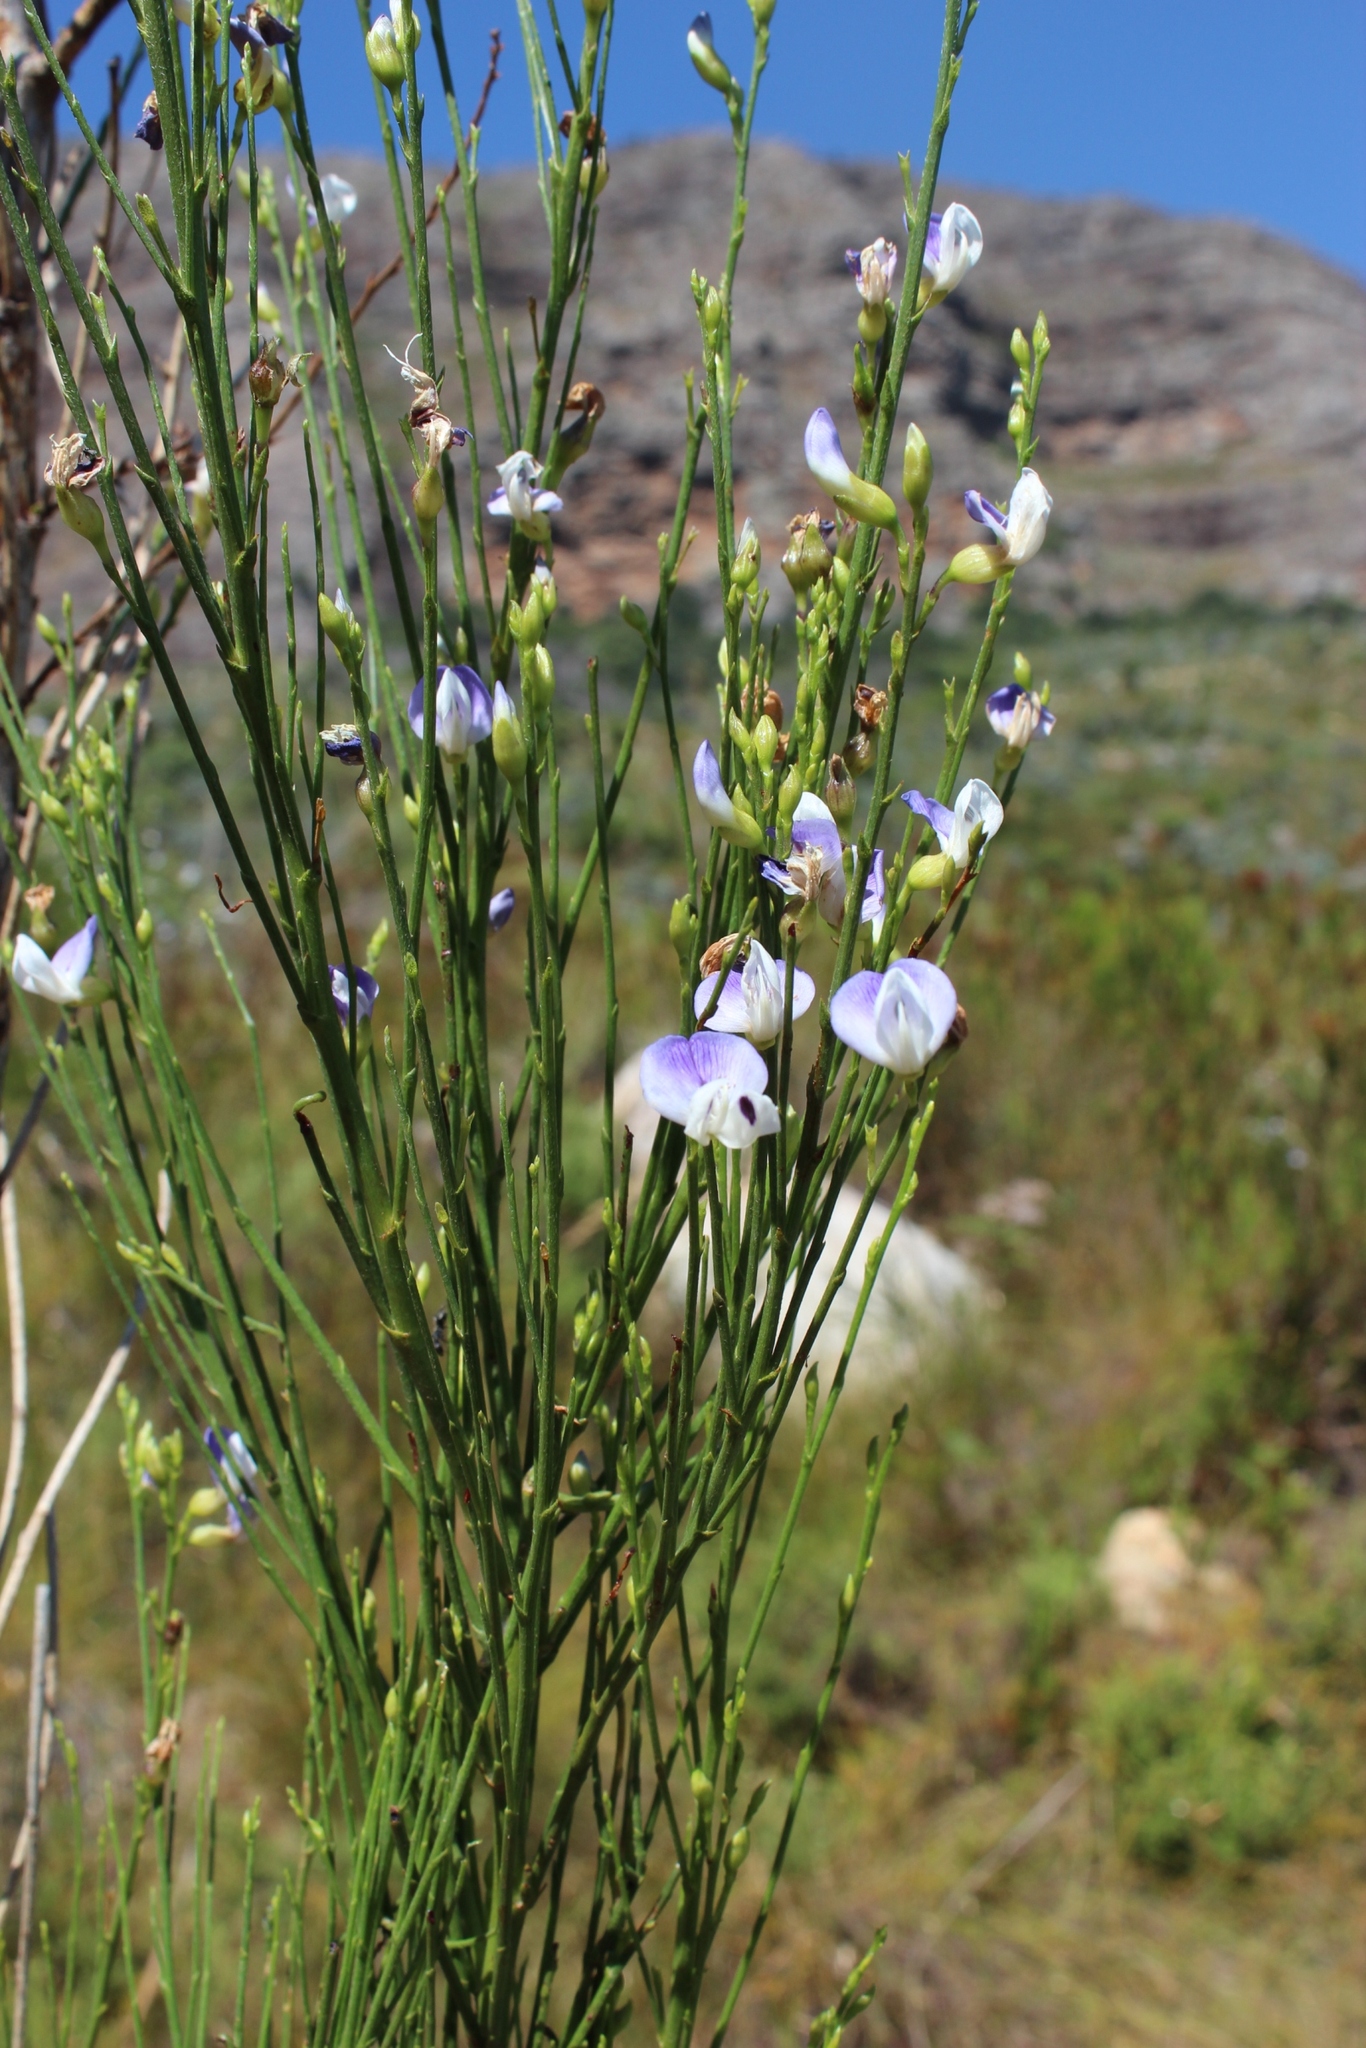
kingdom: Plantae
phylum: Tracheophyta
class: Magnoliopsida
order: Fabales
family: Fabaceae
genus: Psoralea
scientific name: Psoralea usitata
